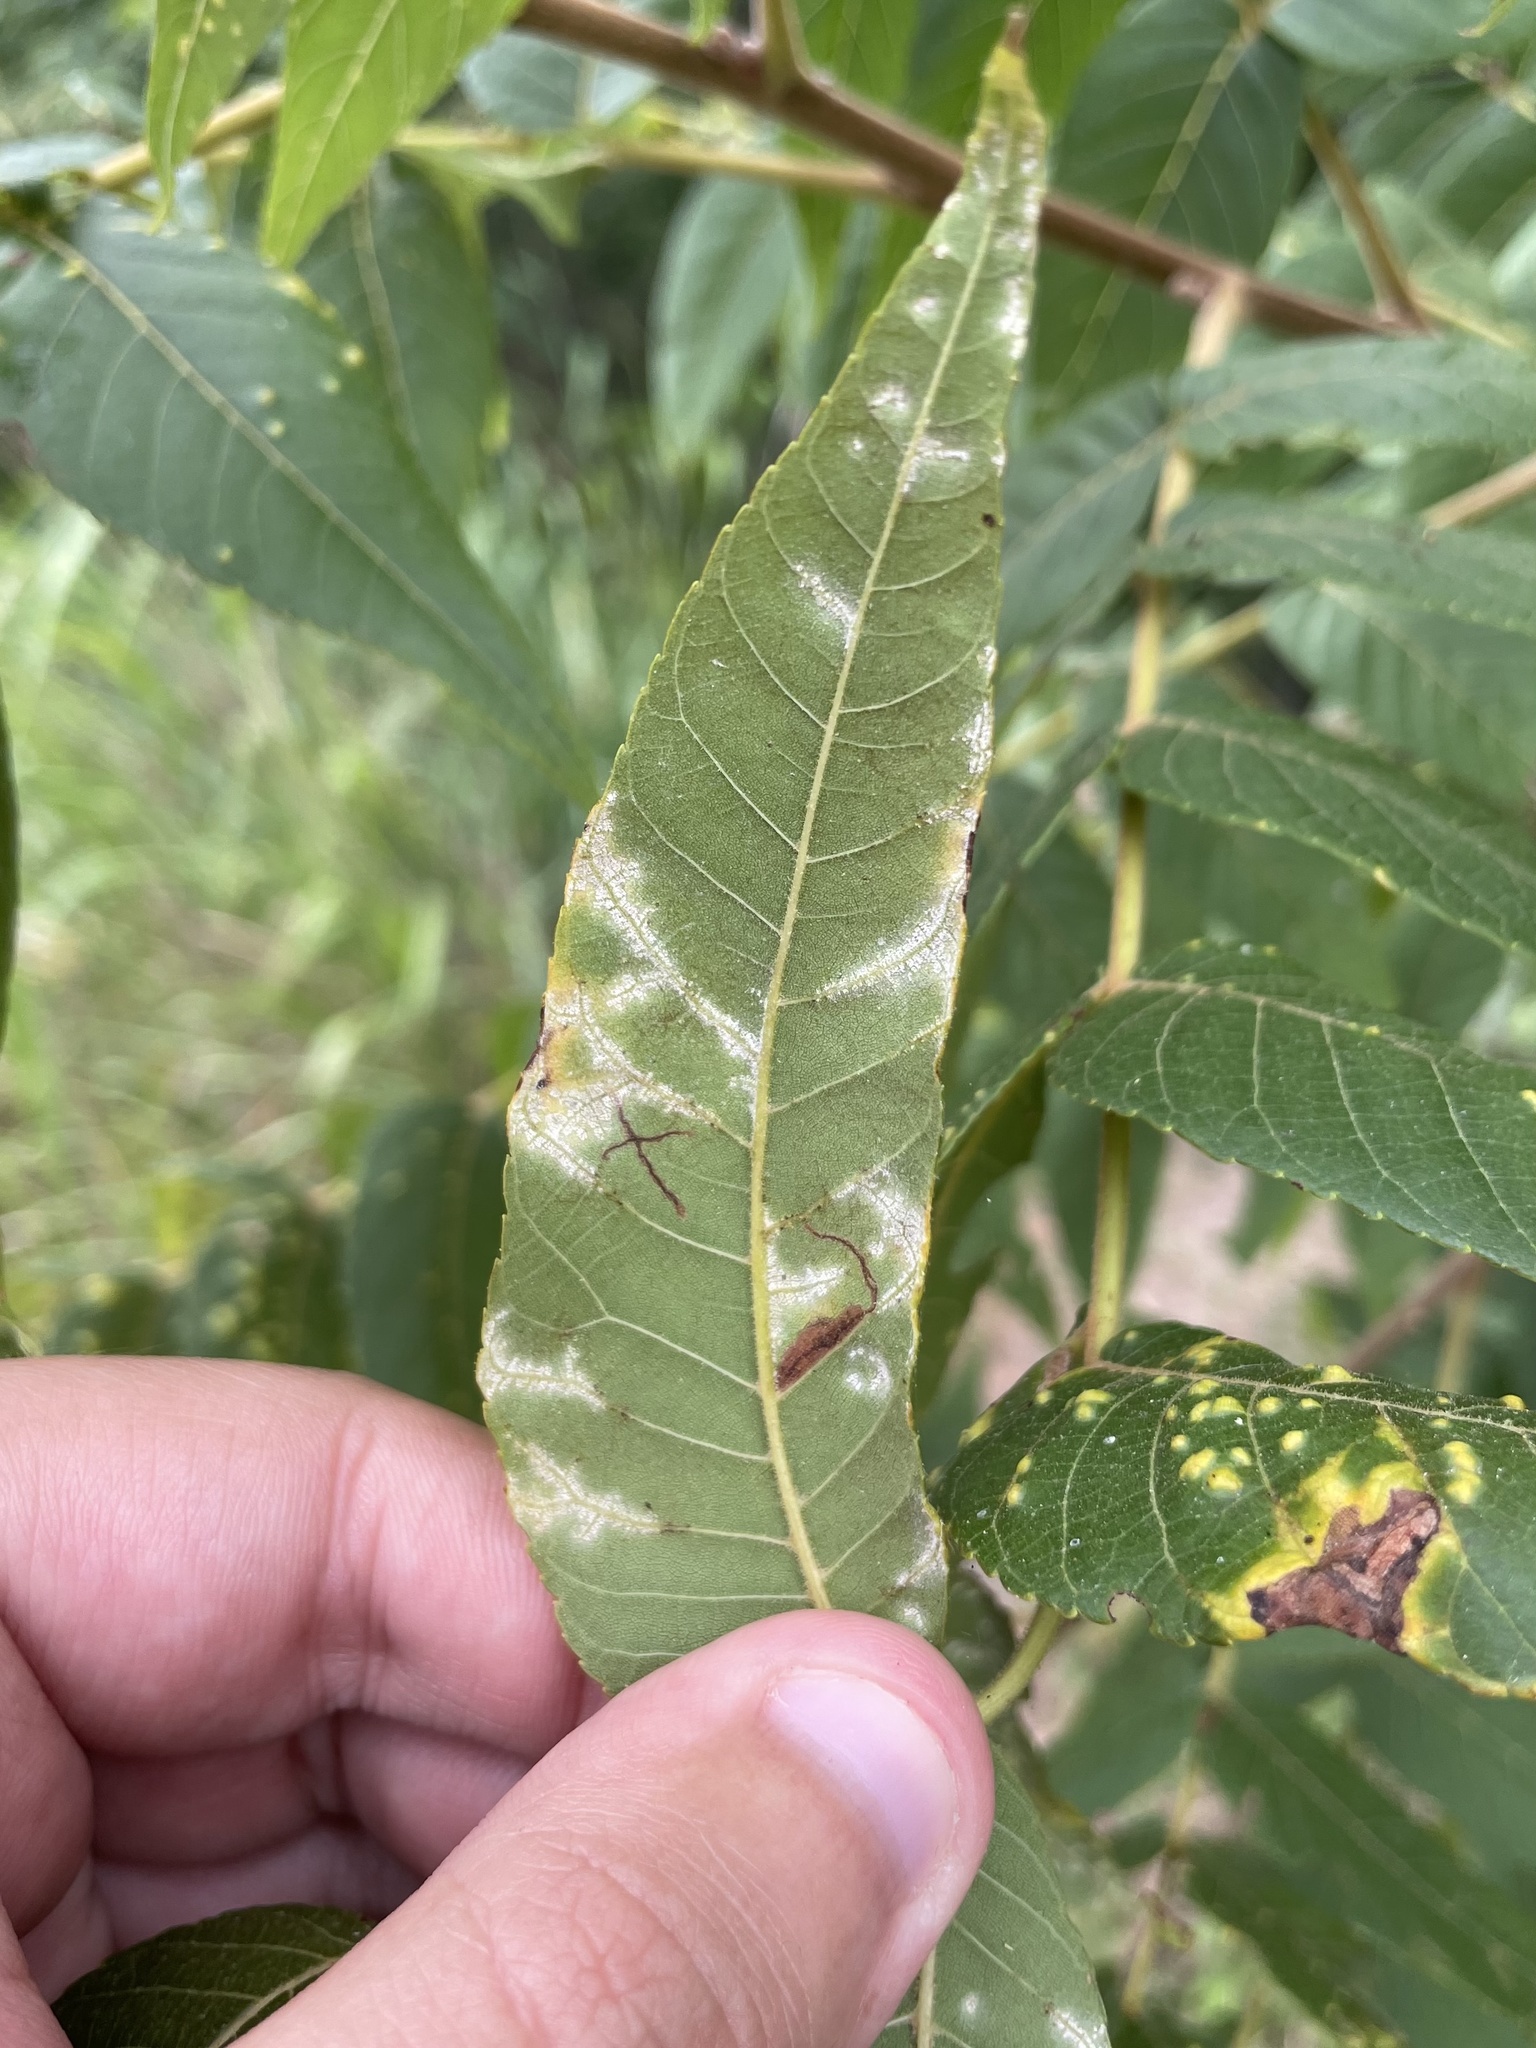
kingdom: Fungi
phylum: Basidiomycota
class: Exobasidiomycetes
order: Microstromatales
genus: Pseudomicrostroma
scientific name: Pseudomicrostroma juglandis
